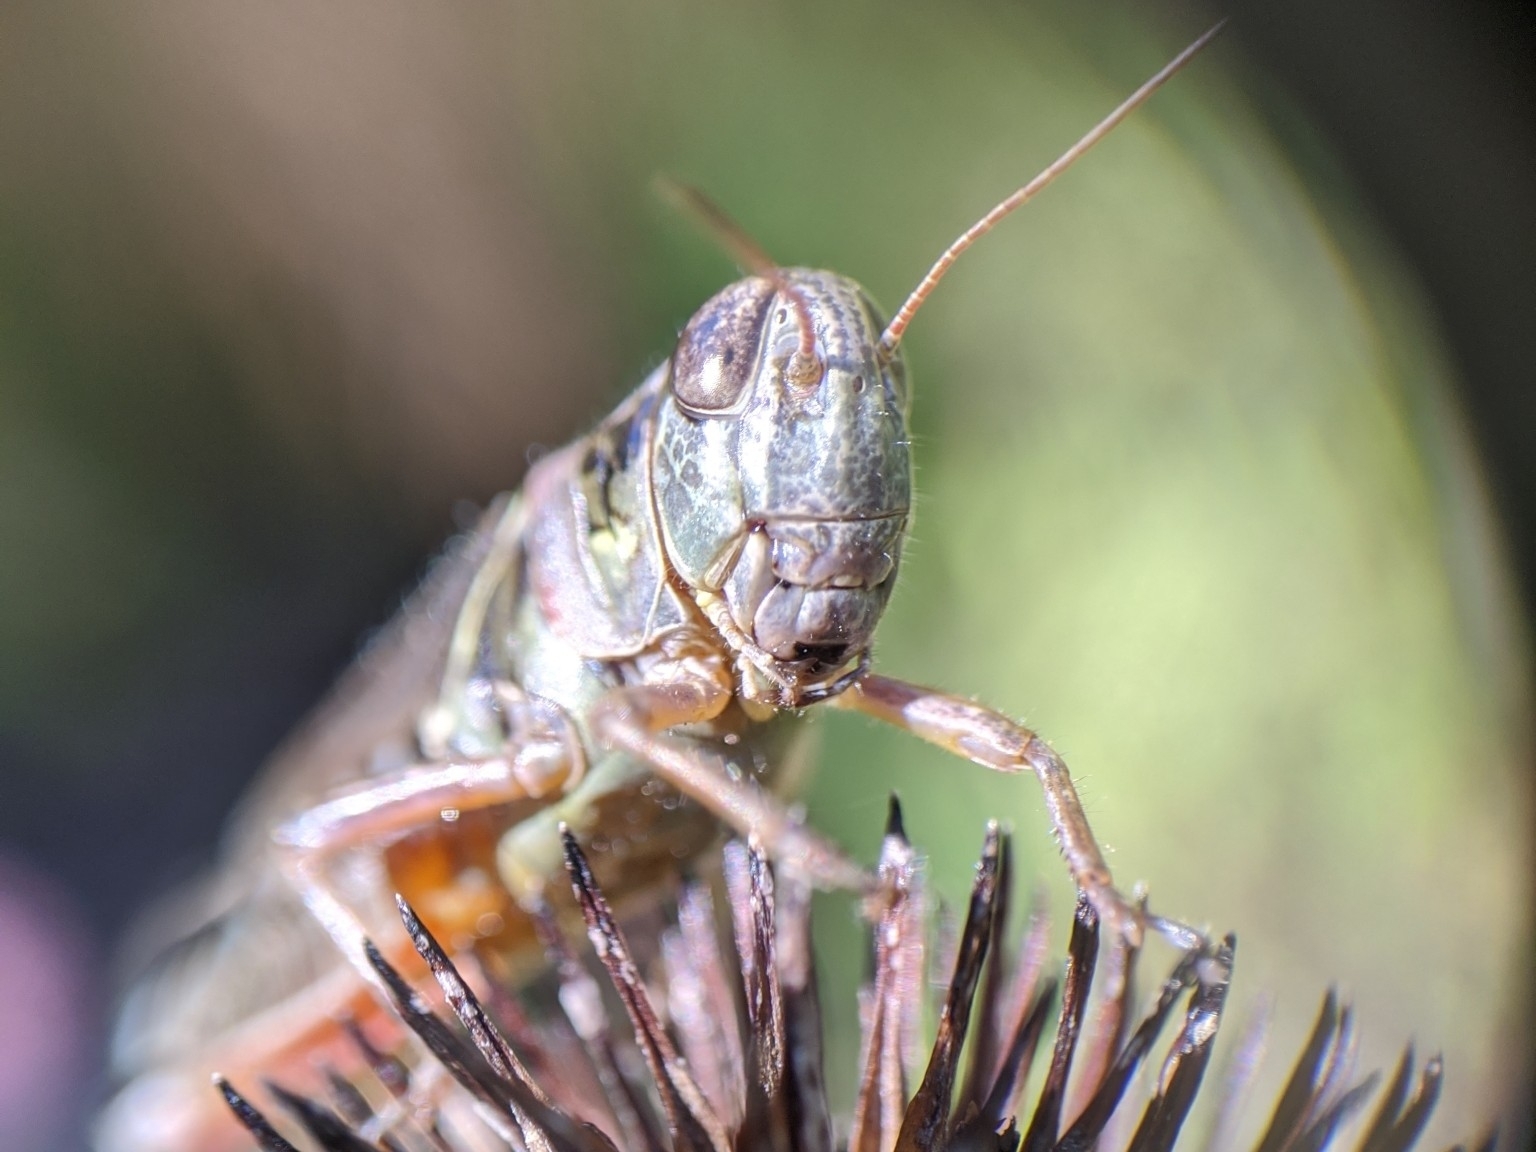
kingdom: Animalia
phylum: Arthropoda
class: Insecta
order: Orthoptera
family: Acrididae
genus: Melanoplus
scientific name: Melanoplus femurrubrum
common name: Red-legged grasshopper
